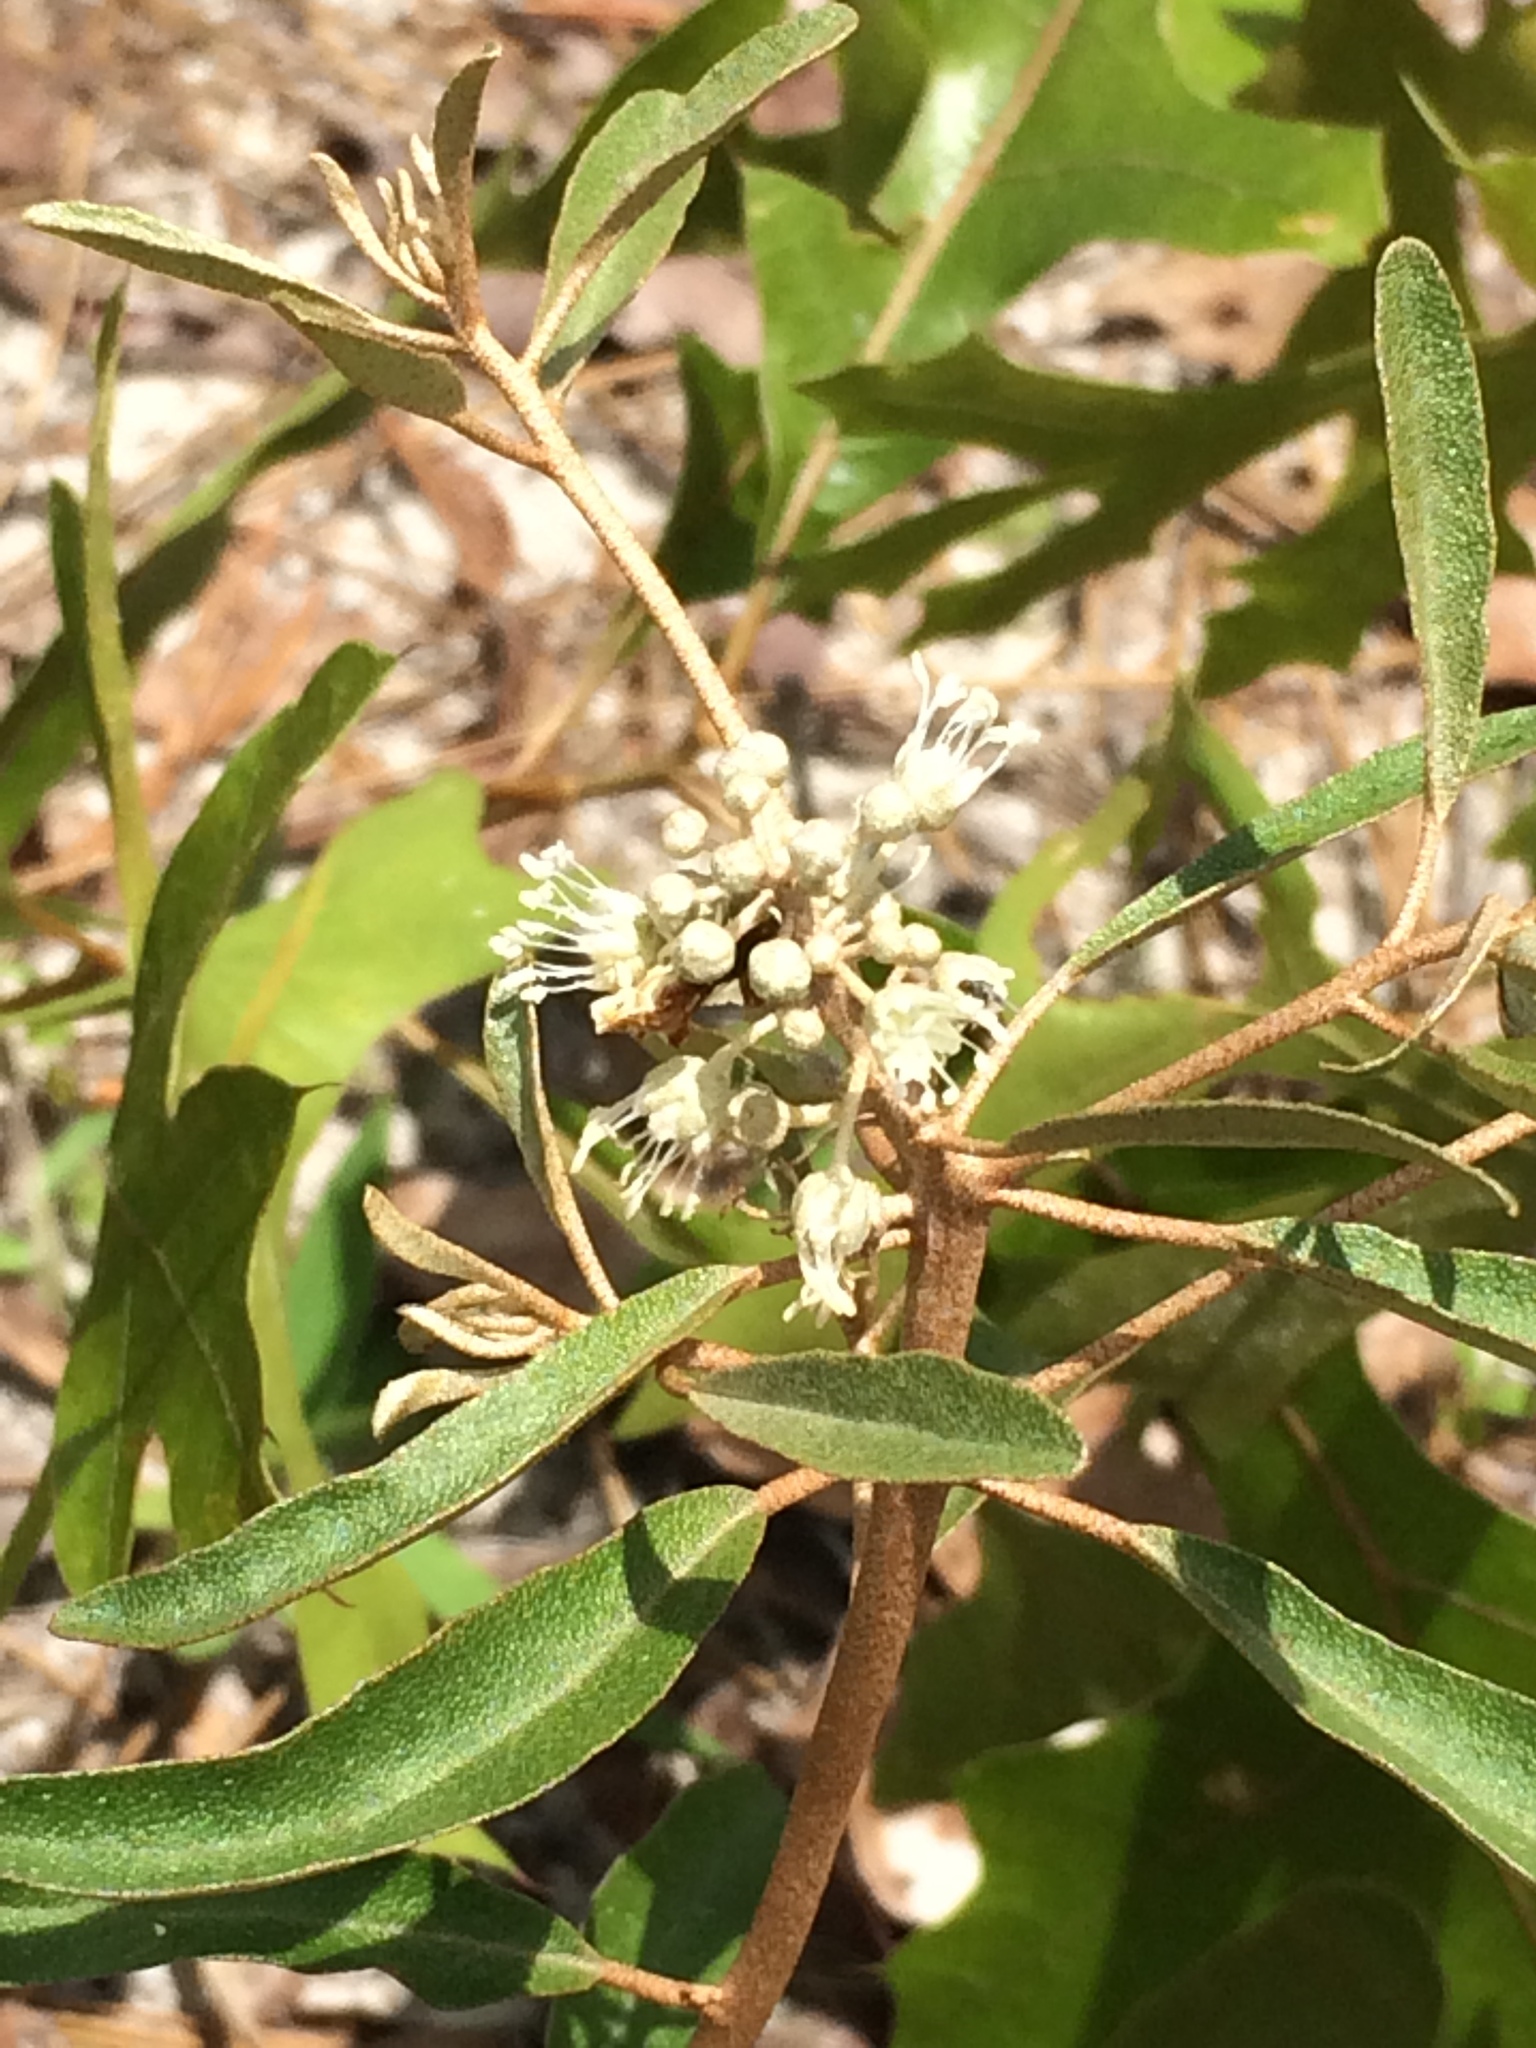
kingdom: Plantae
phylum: Tracheophyta
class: Magnoliopsida
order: Malpighiales
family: Euphorbiaceae
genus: Croton
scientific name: Croton argyranthemus
